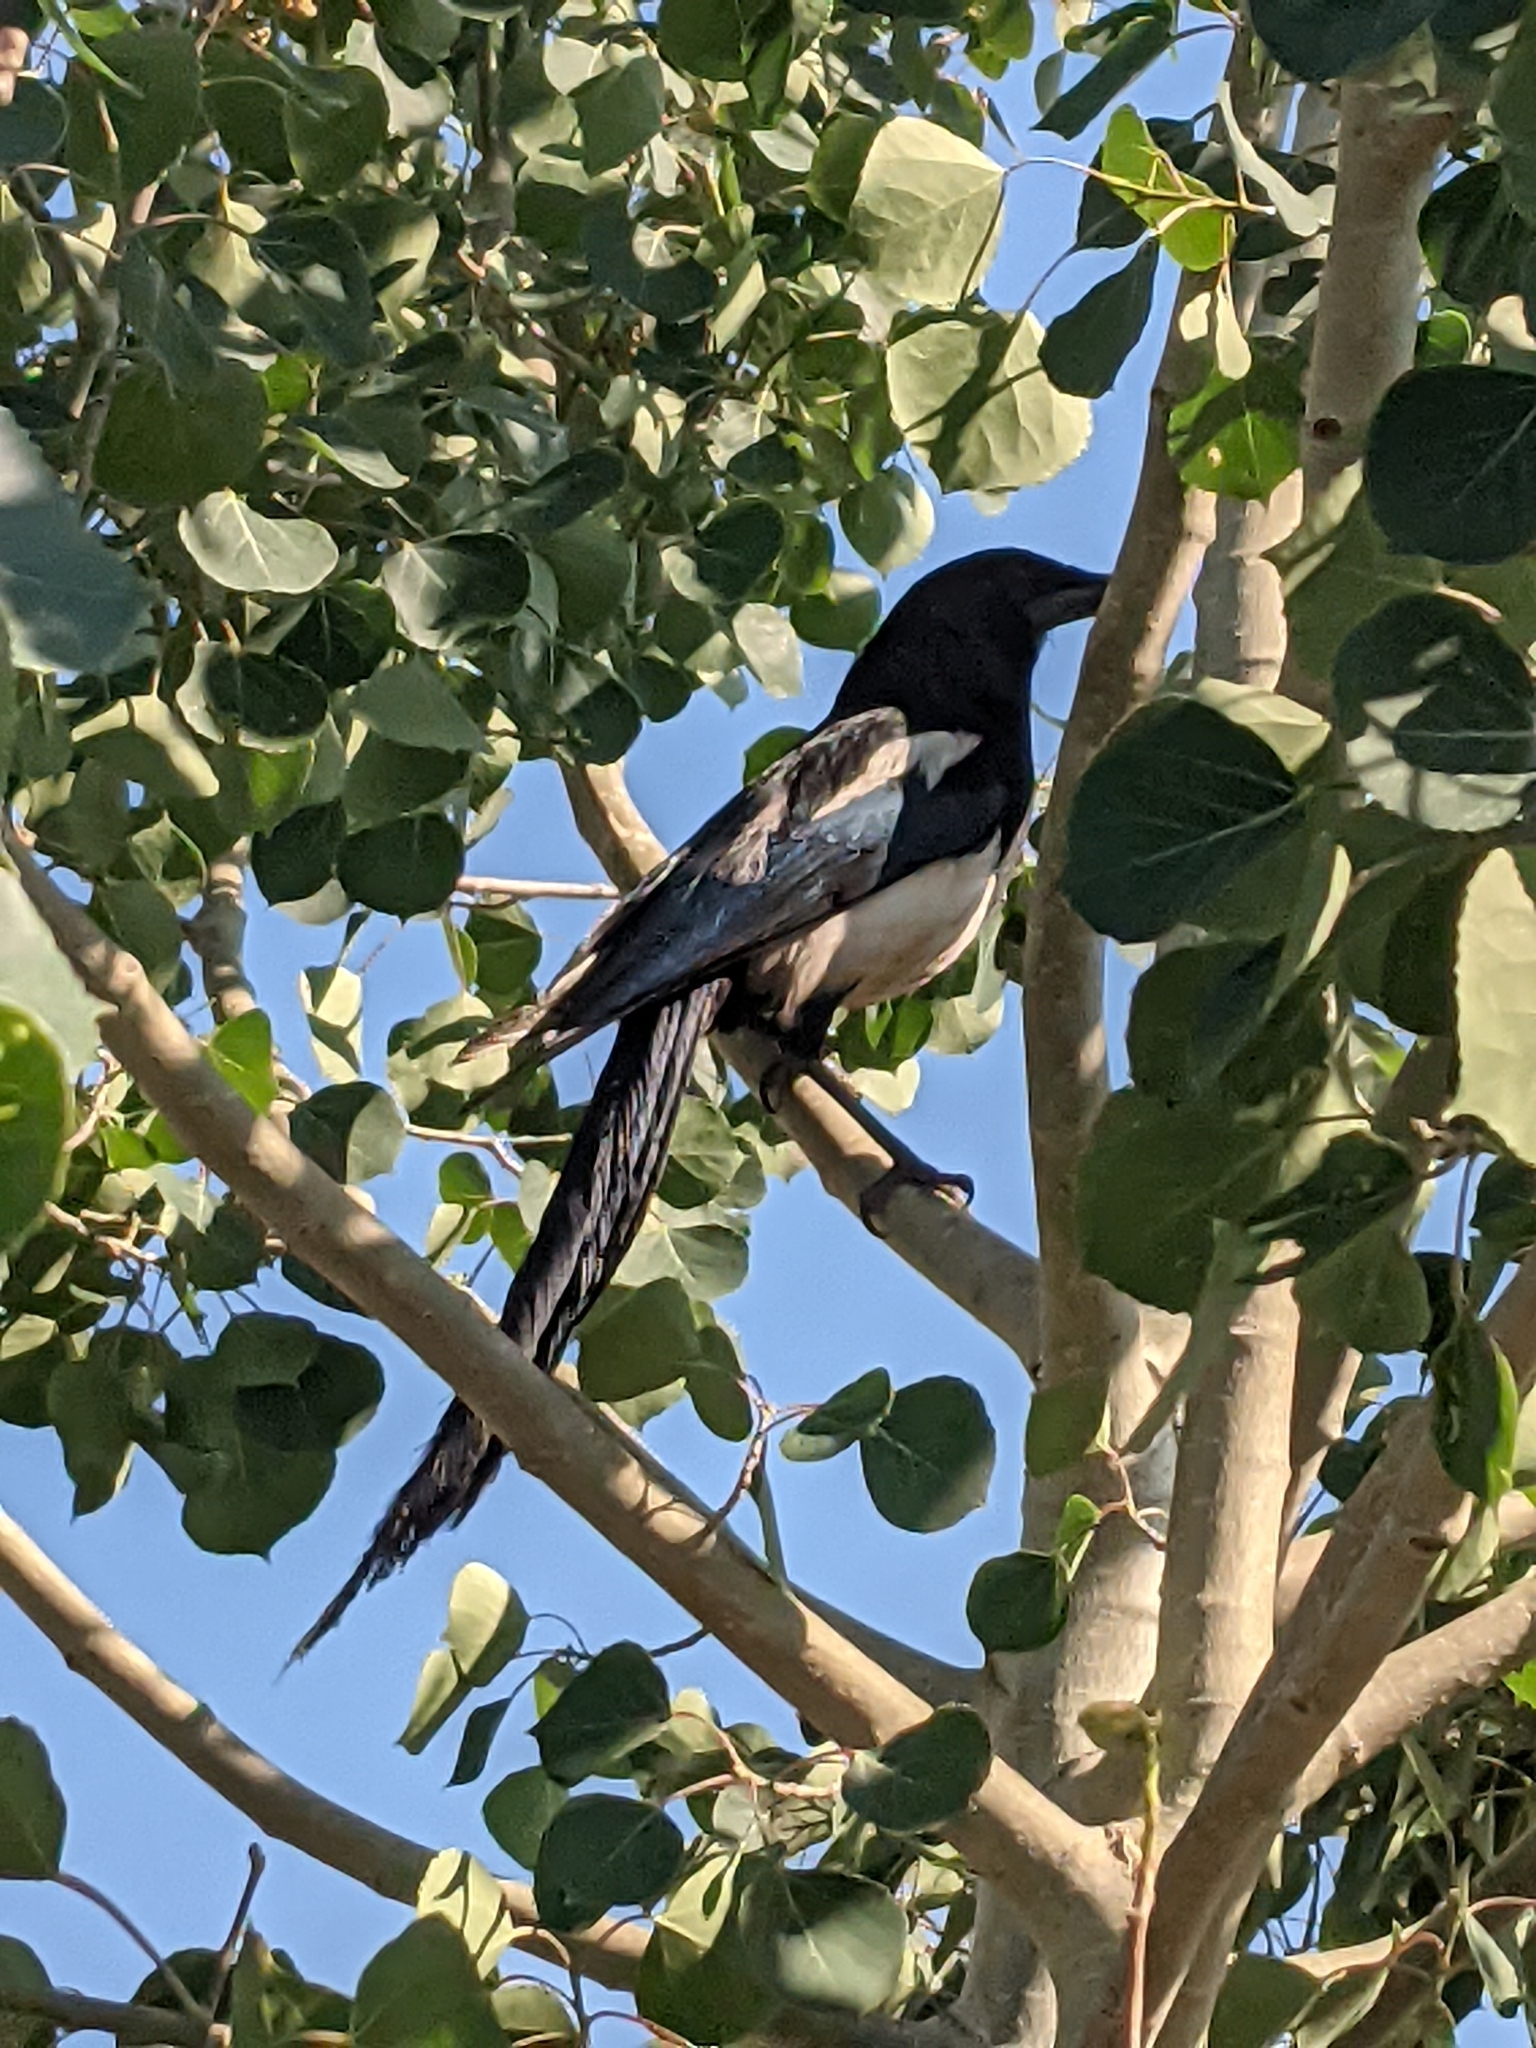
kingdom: Animalia
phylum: Chordata
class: Aves
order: Passeriformes
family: Corvidae
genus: Pica
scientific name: Pica hudsonia
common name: Black-billed magpie
